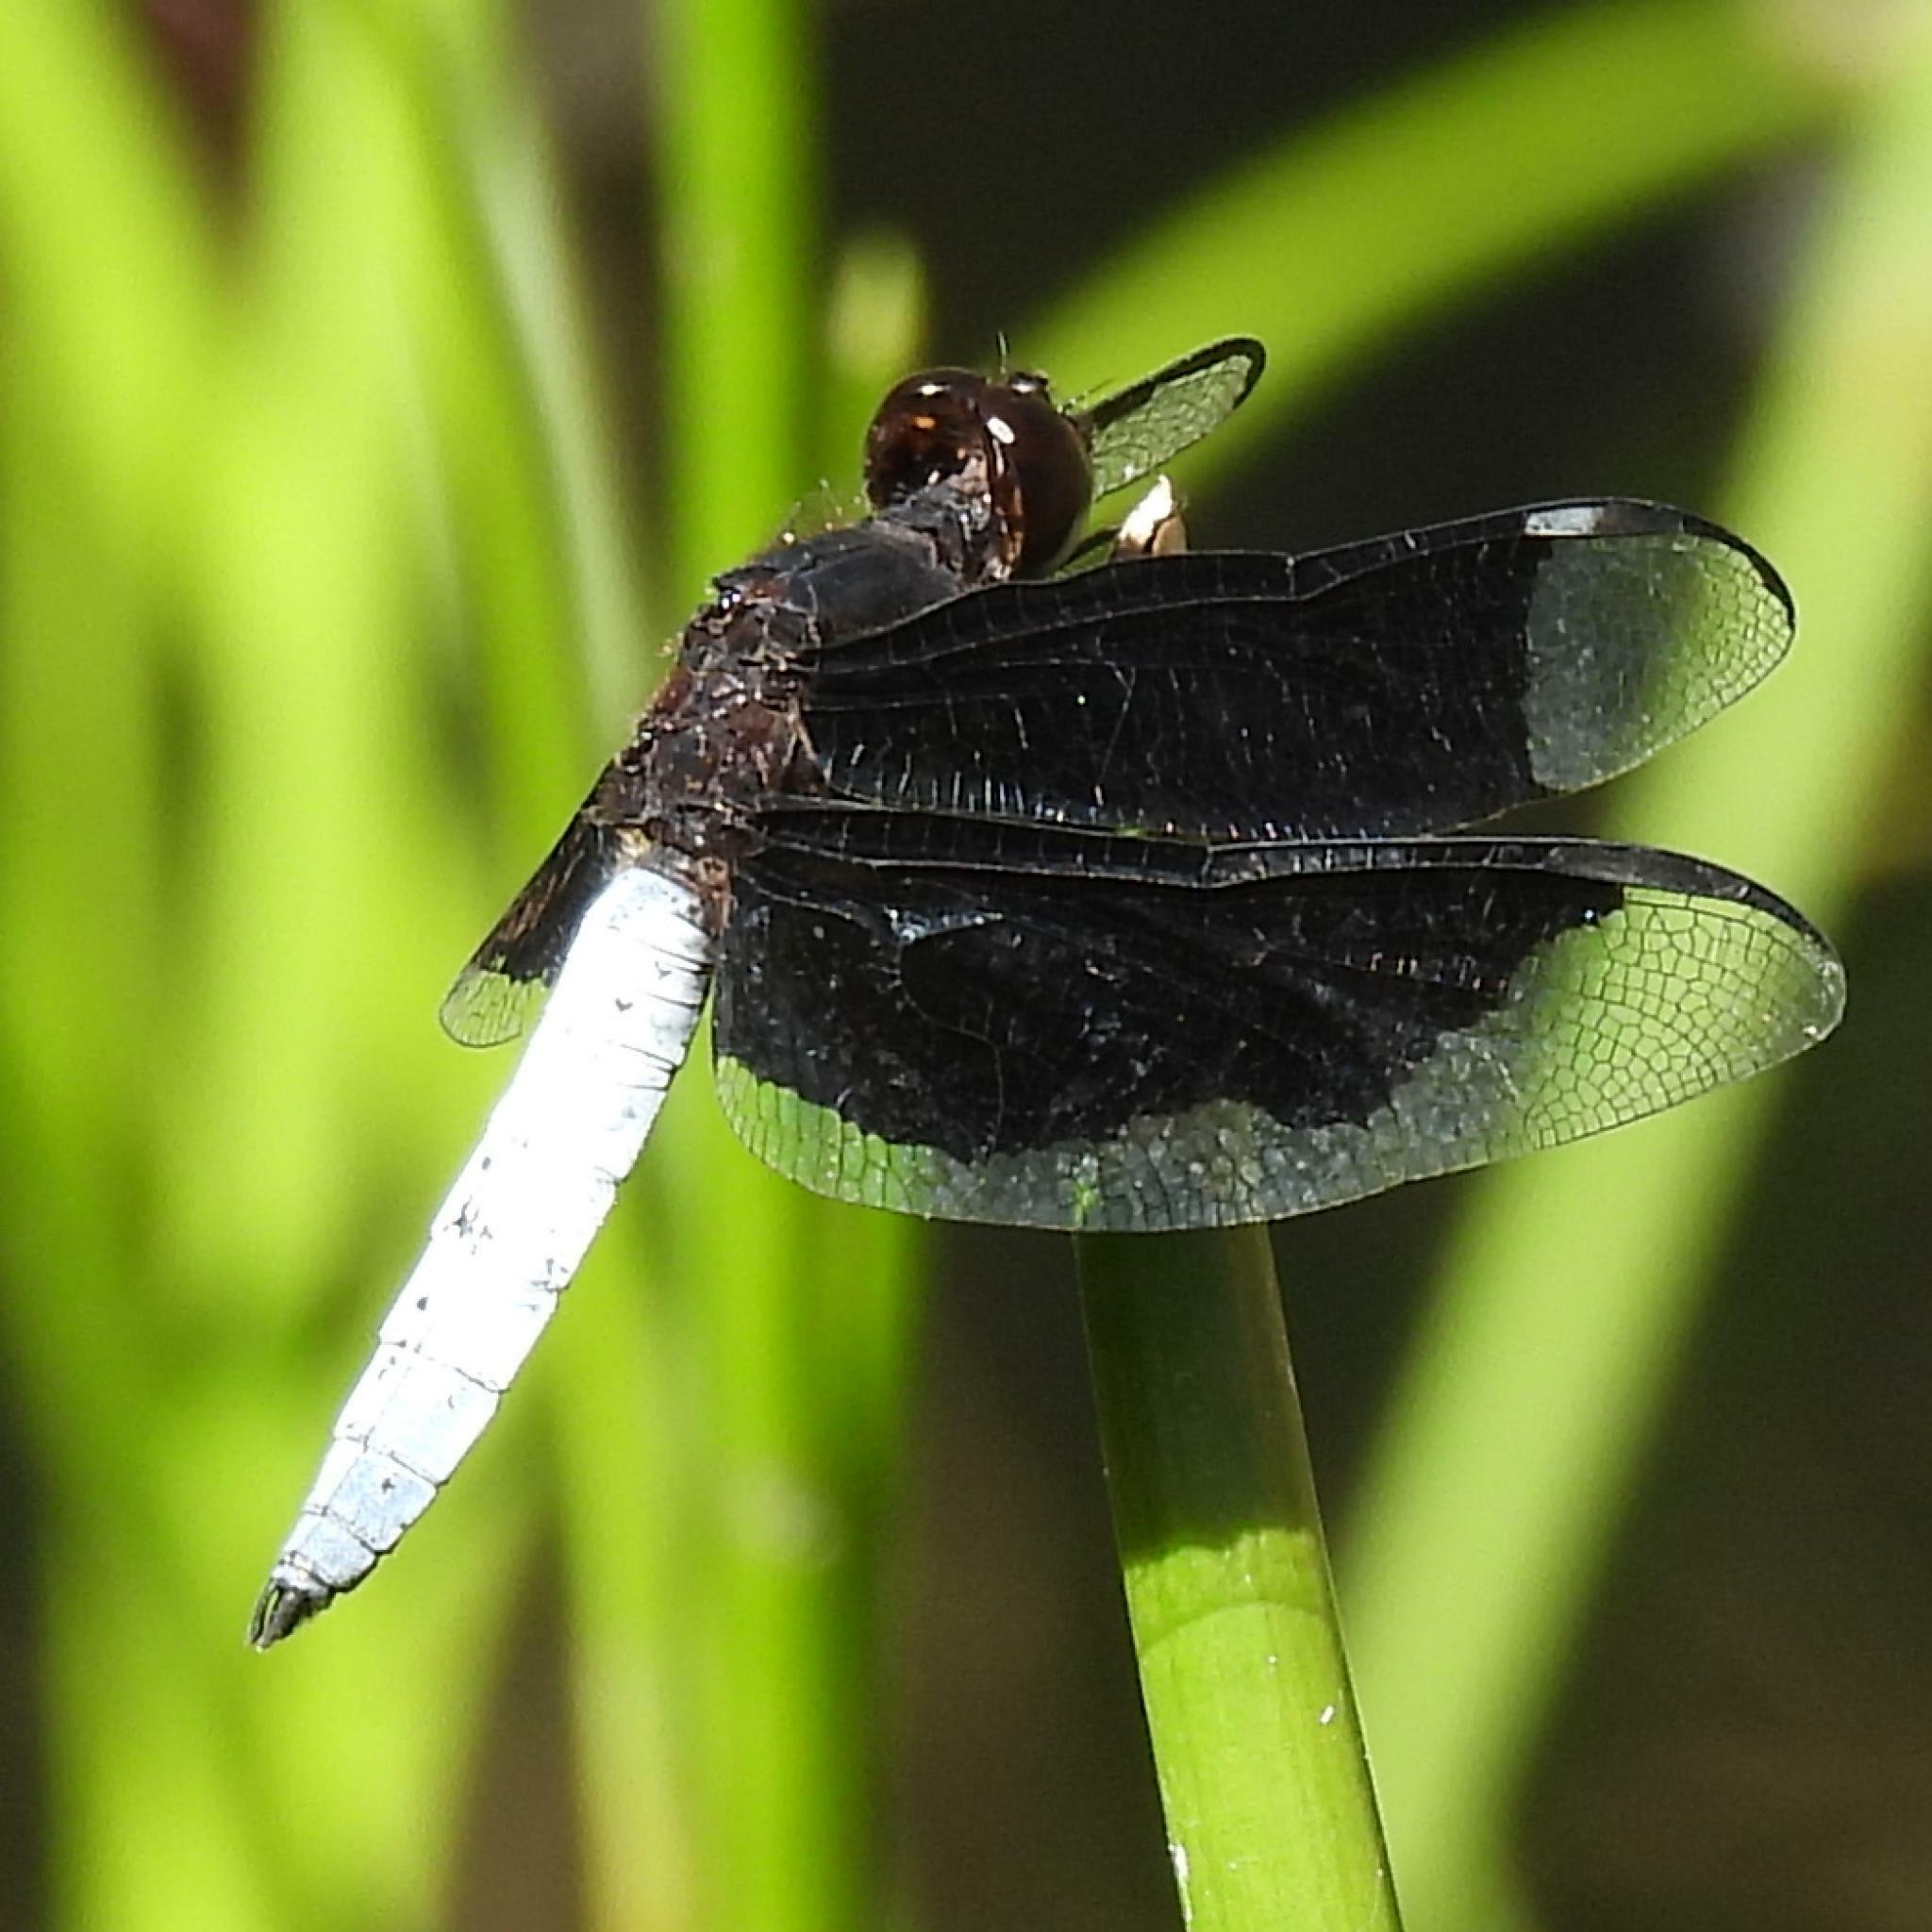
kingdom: Animalia
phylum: Arthropoda
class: Insecta
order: Odonata
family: Libellulidae
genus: Palpopleura
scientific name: Palpopleura lucia
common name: Lucia widow
